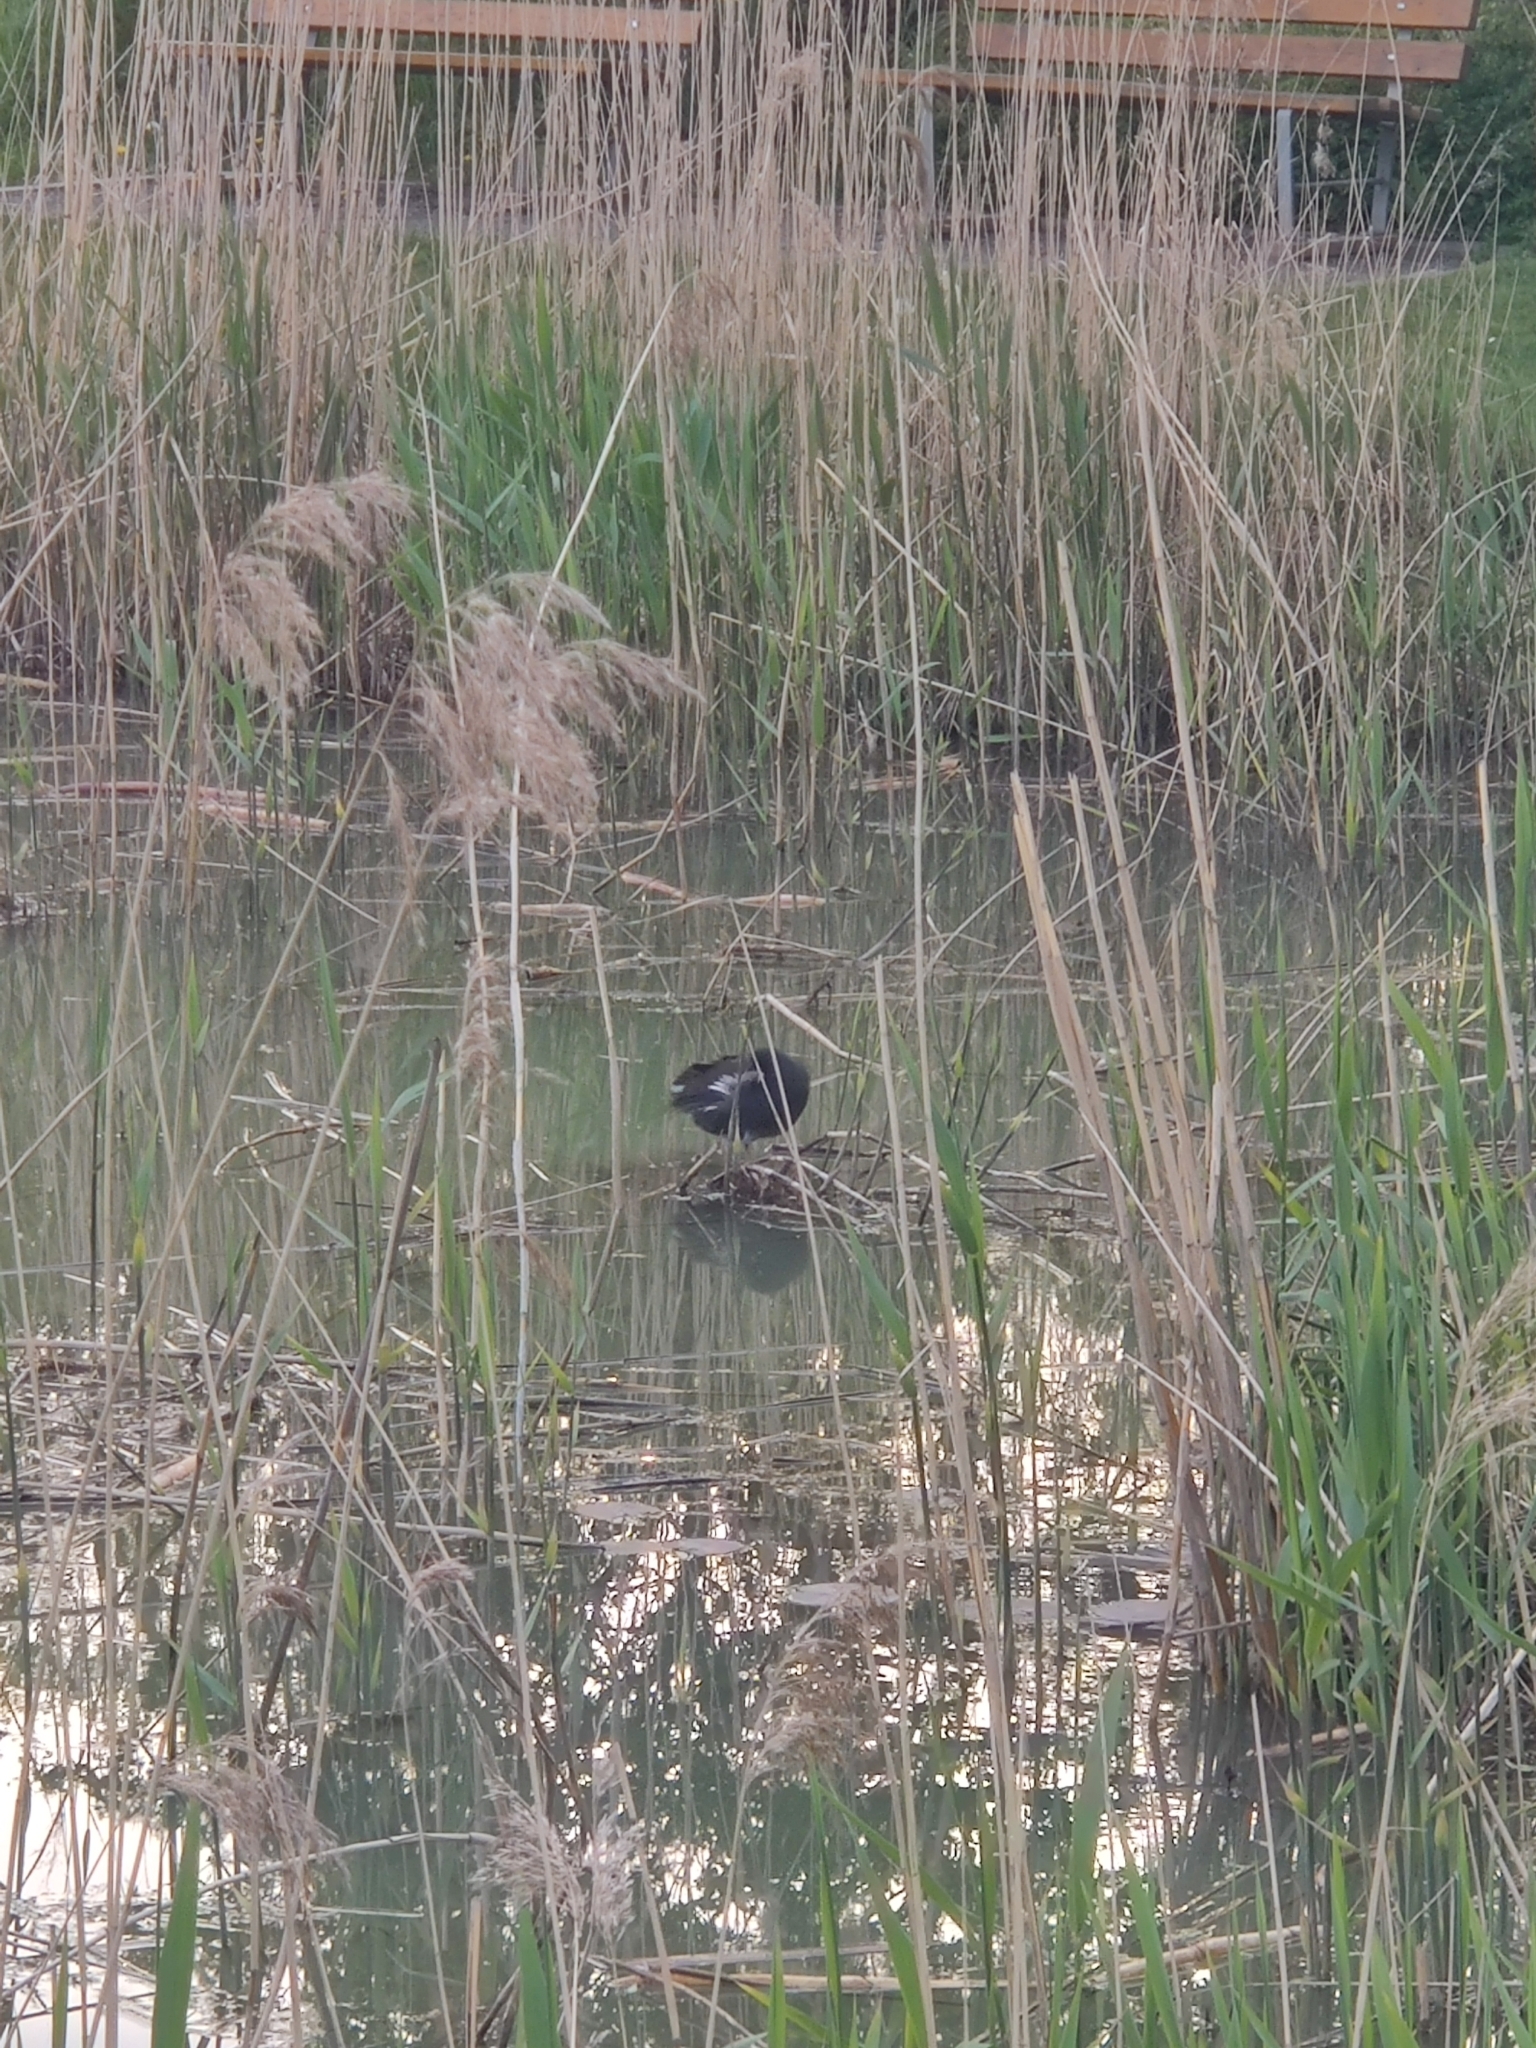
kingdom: Animalia
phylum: Chordata
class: Aves
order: Gruiformes
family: Rallidae
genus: Gallinula
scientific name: Gallinula chloropus
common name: Common moorhen
